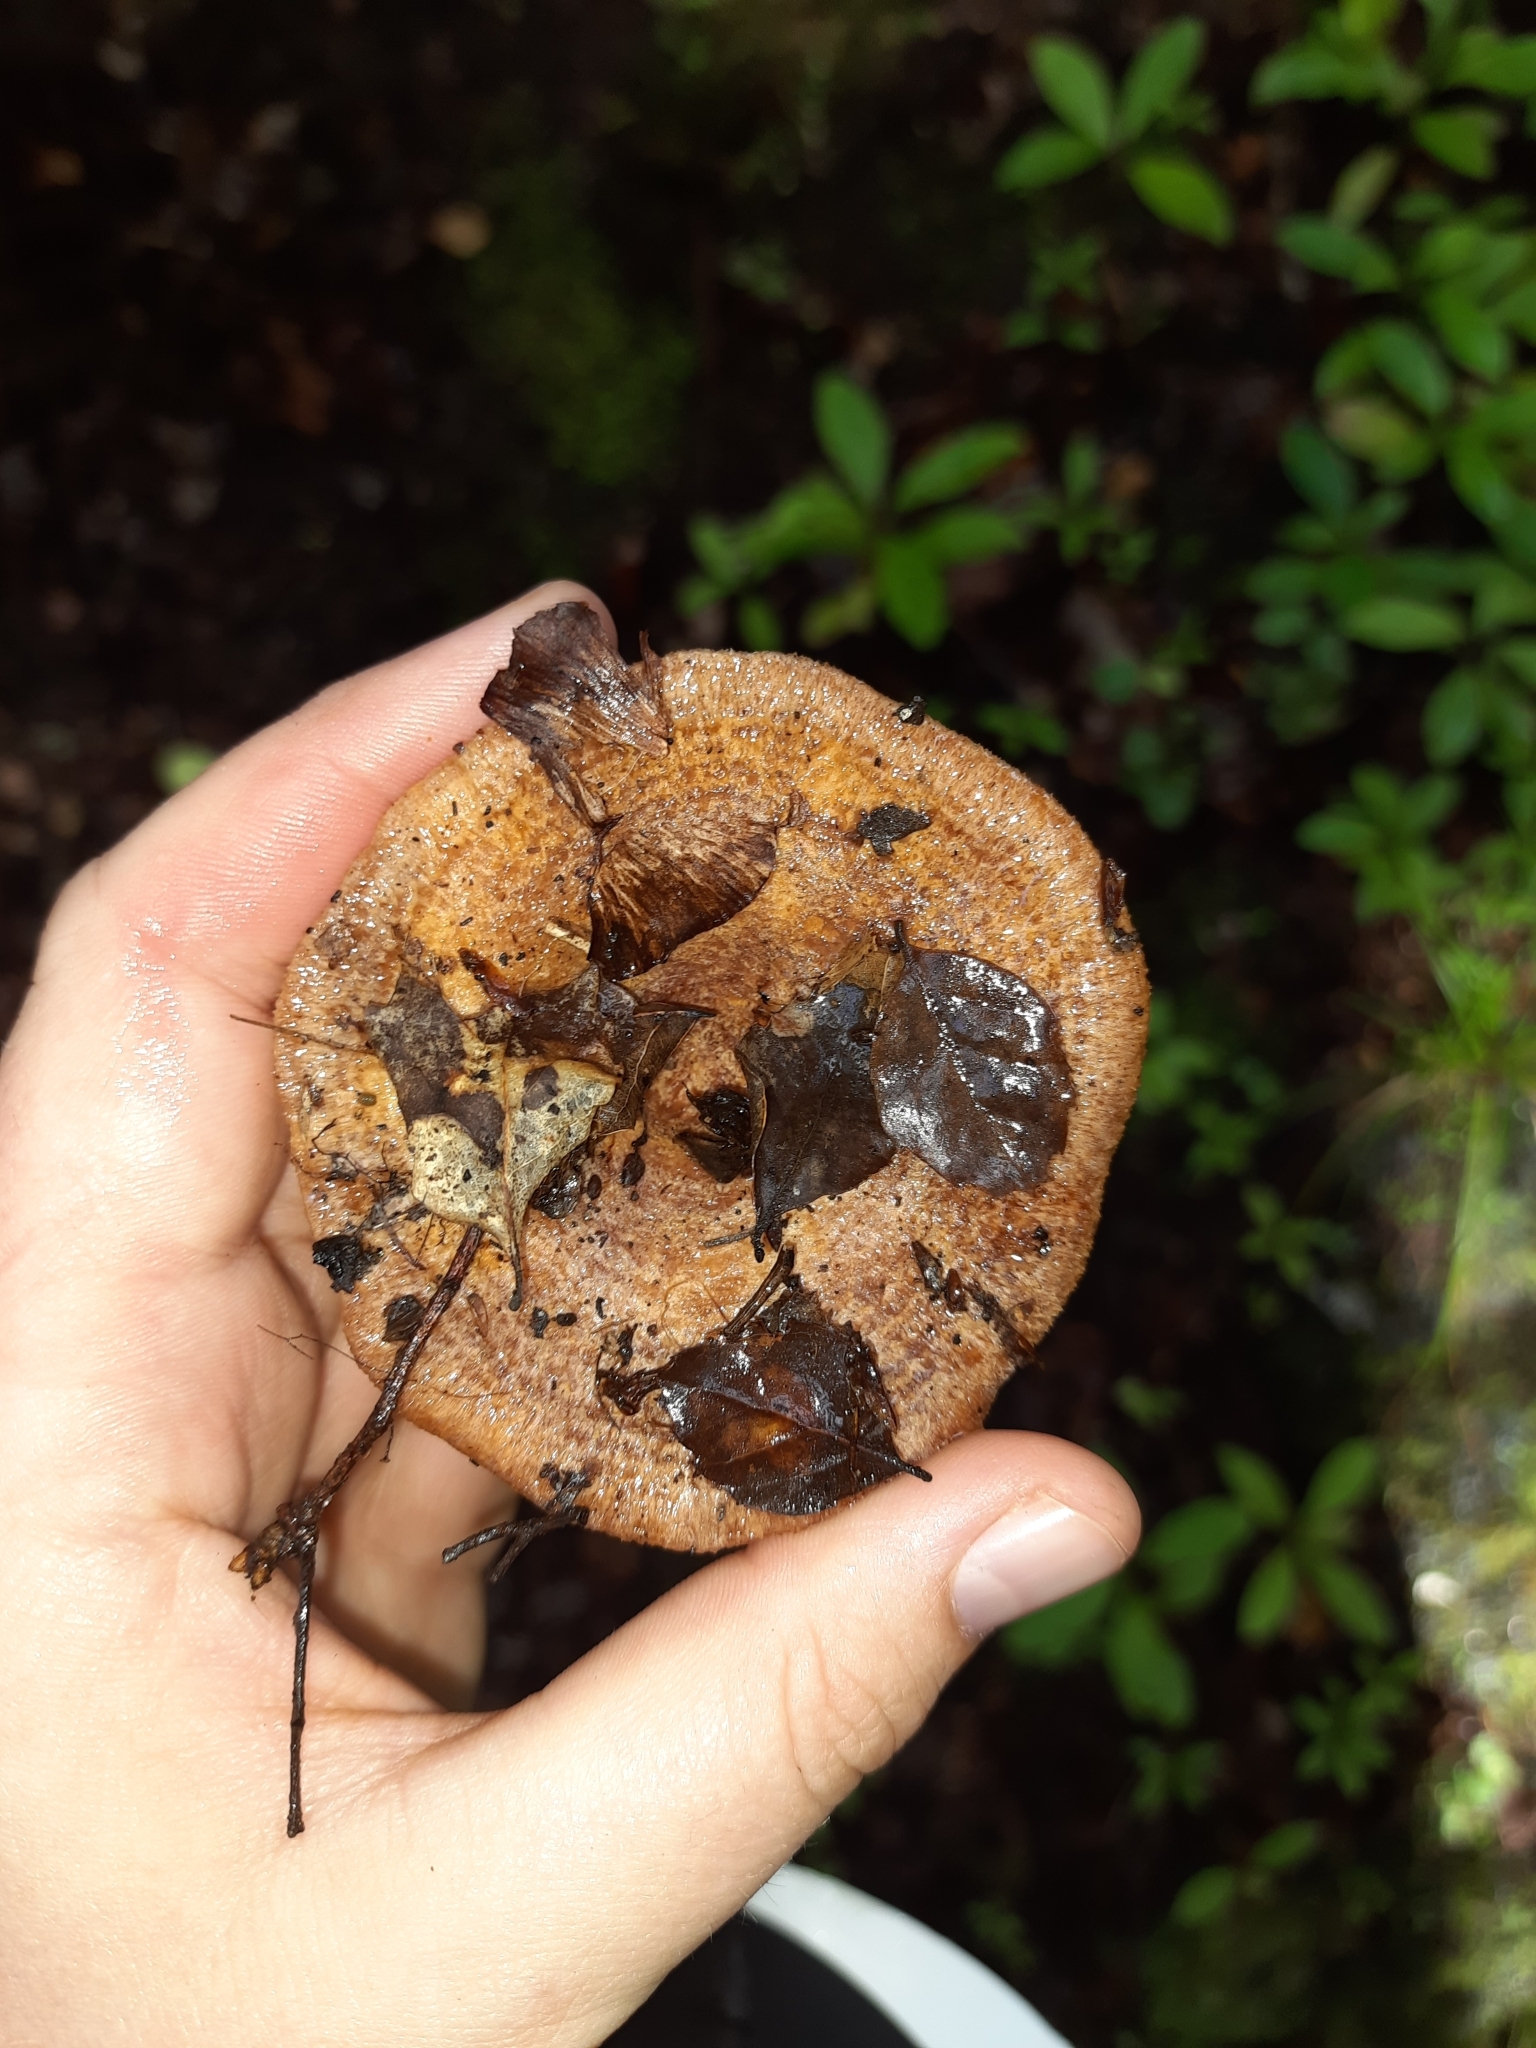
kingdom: Fungi
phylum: Basidiomycota
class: Agaricomycetes
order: Russulales
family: Russulaceae
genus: Lactarius
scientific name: Lactarius tawai
